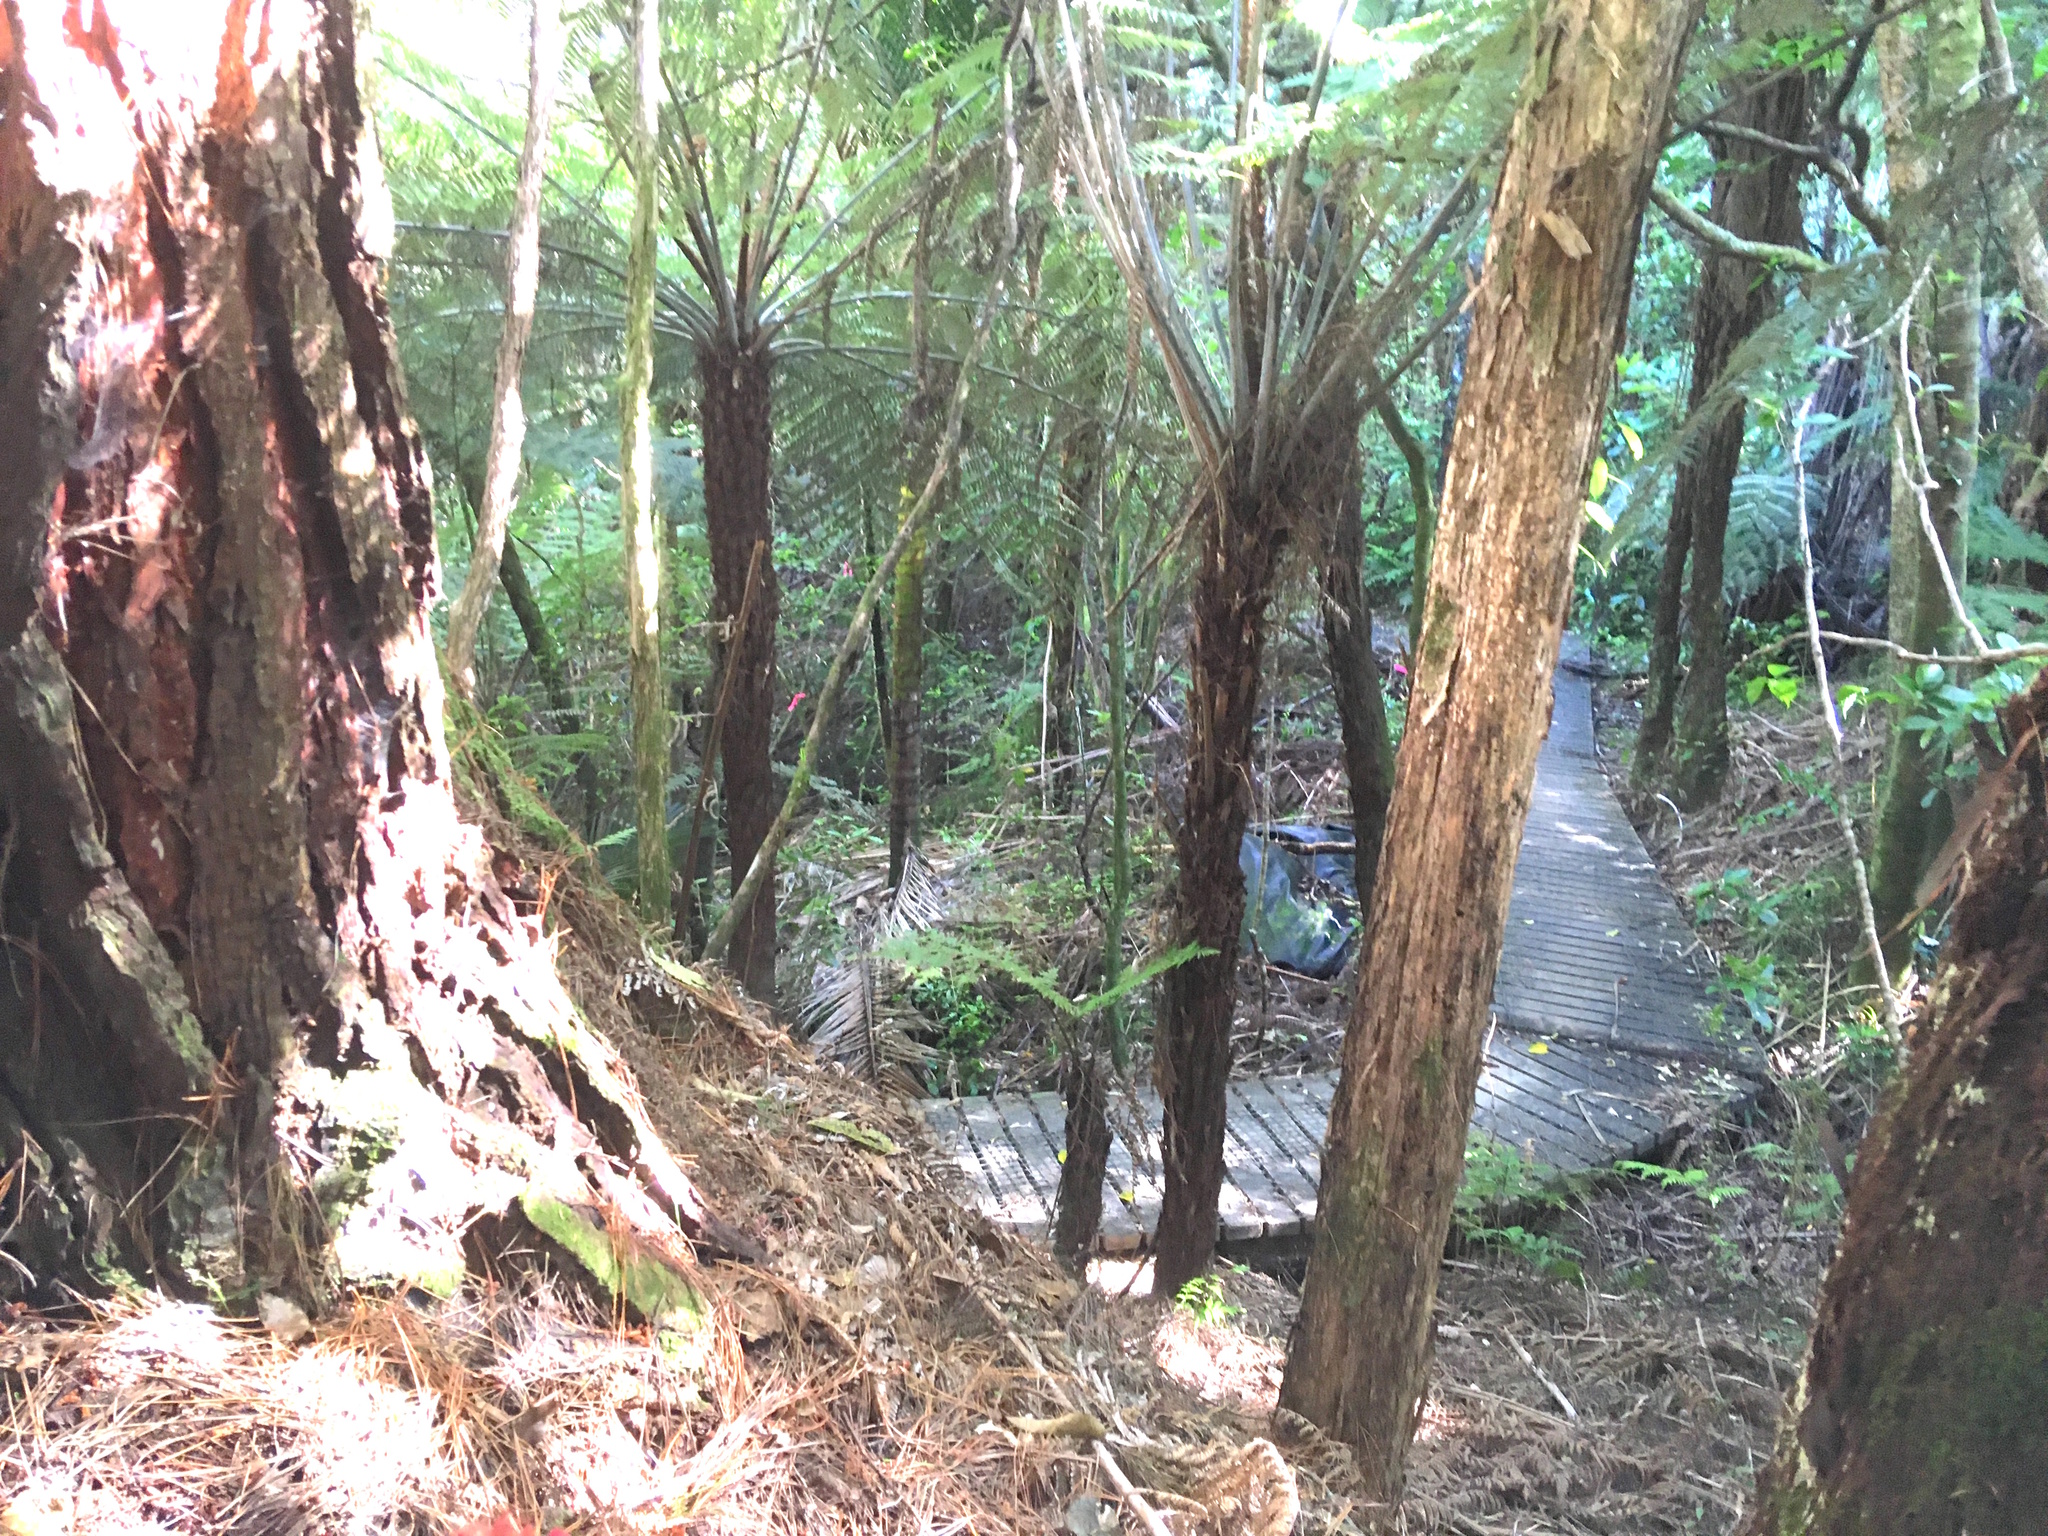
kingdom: Plantae
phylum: Tracheophyta
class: Magnoliopsida
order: Myrtales
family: Myrtaceae
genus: Kunzea
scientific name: Kunzea robusta
